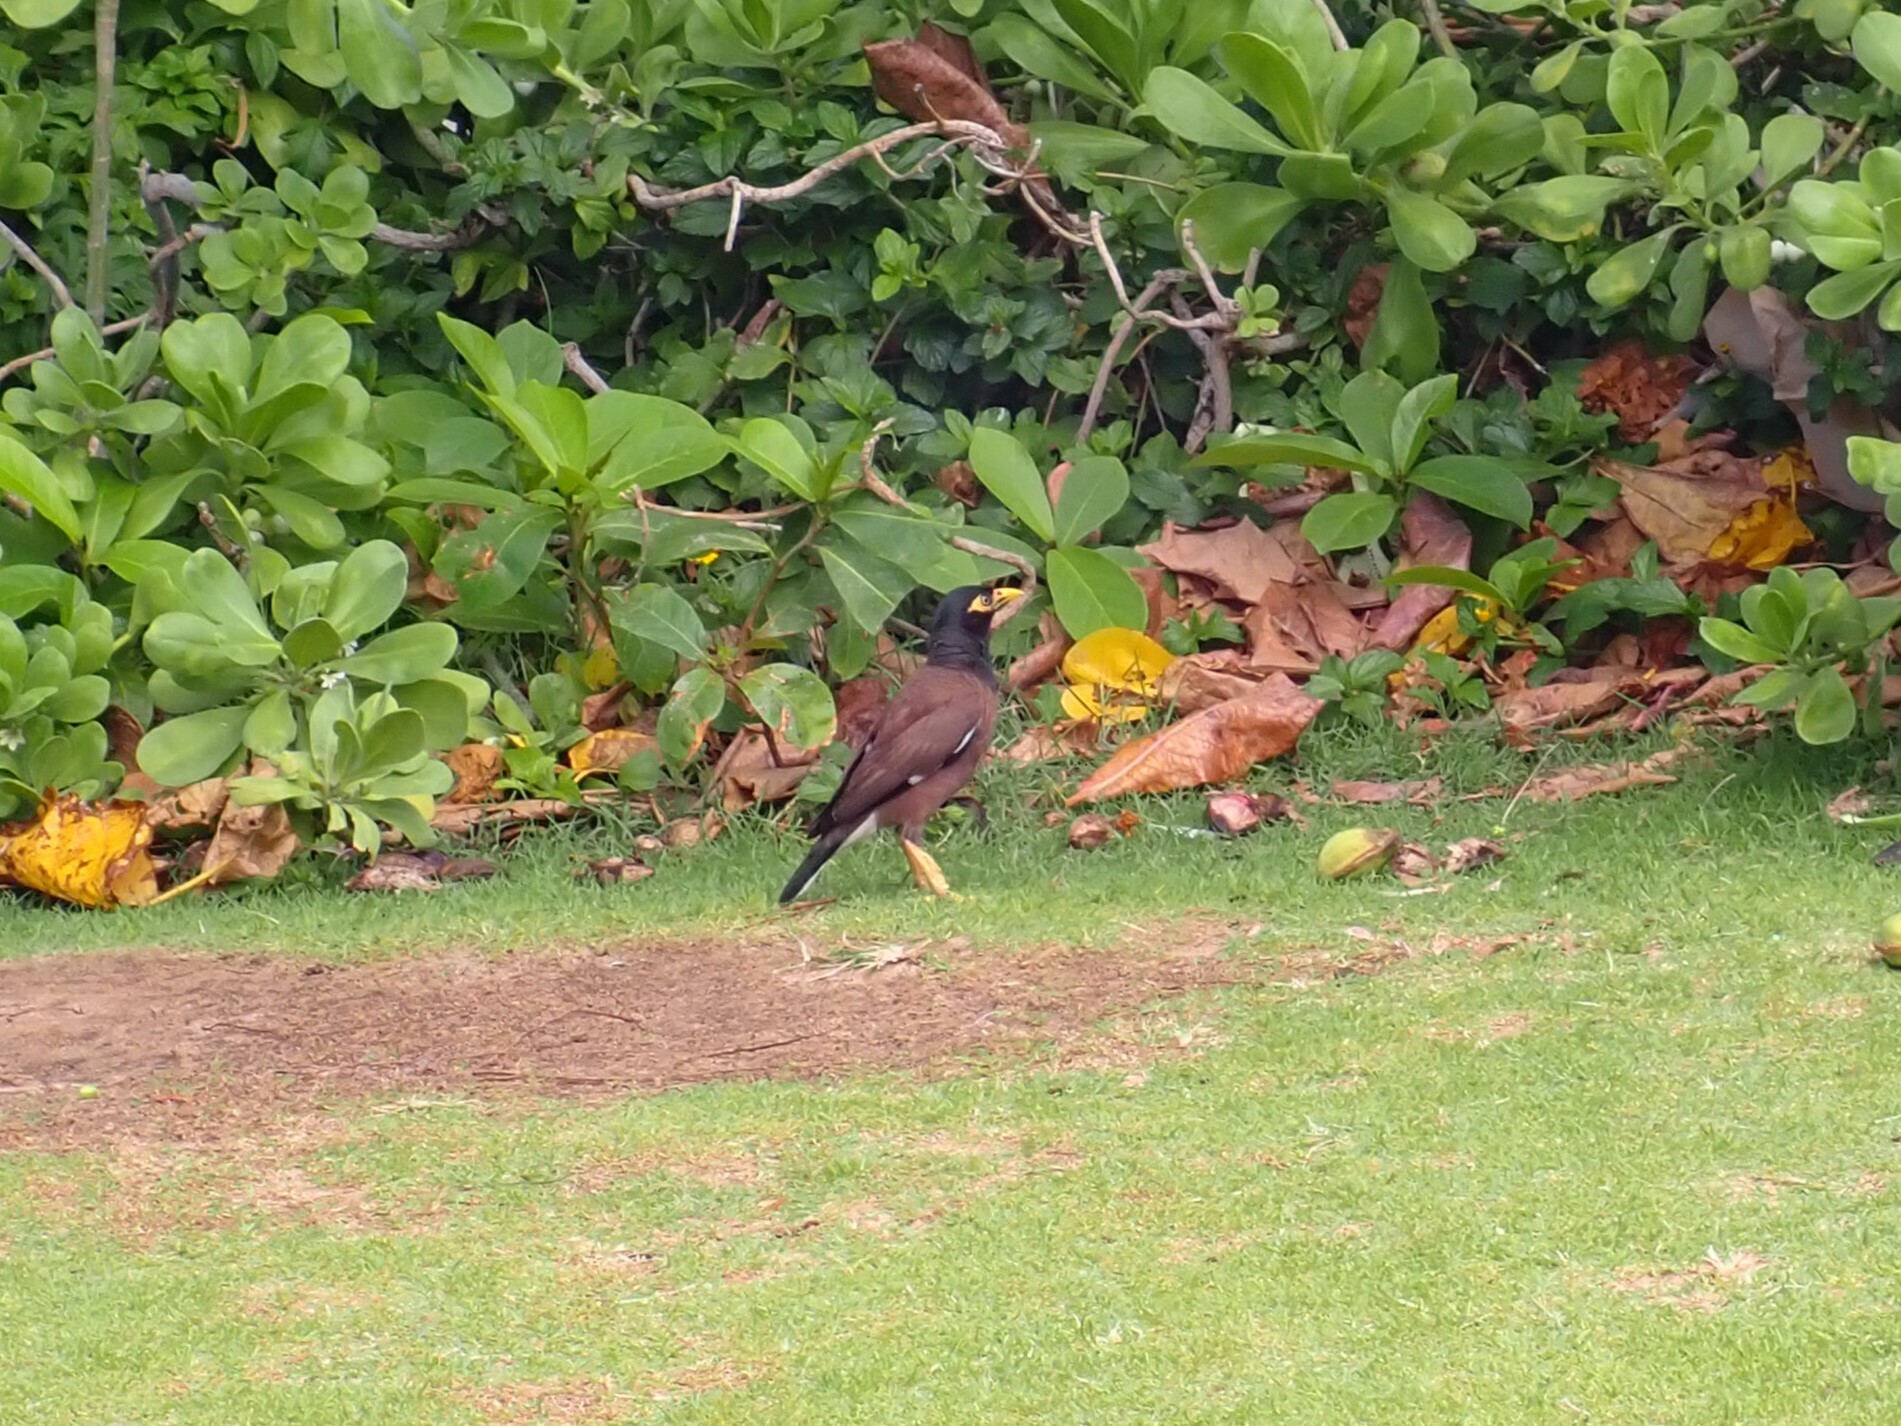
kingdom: Animalia
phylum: Chordata
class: Aves
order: Passeriformes
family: Sturnidae
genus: Acridotheres
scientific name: Acridotheres tristis
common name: Common myna
